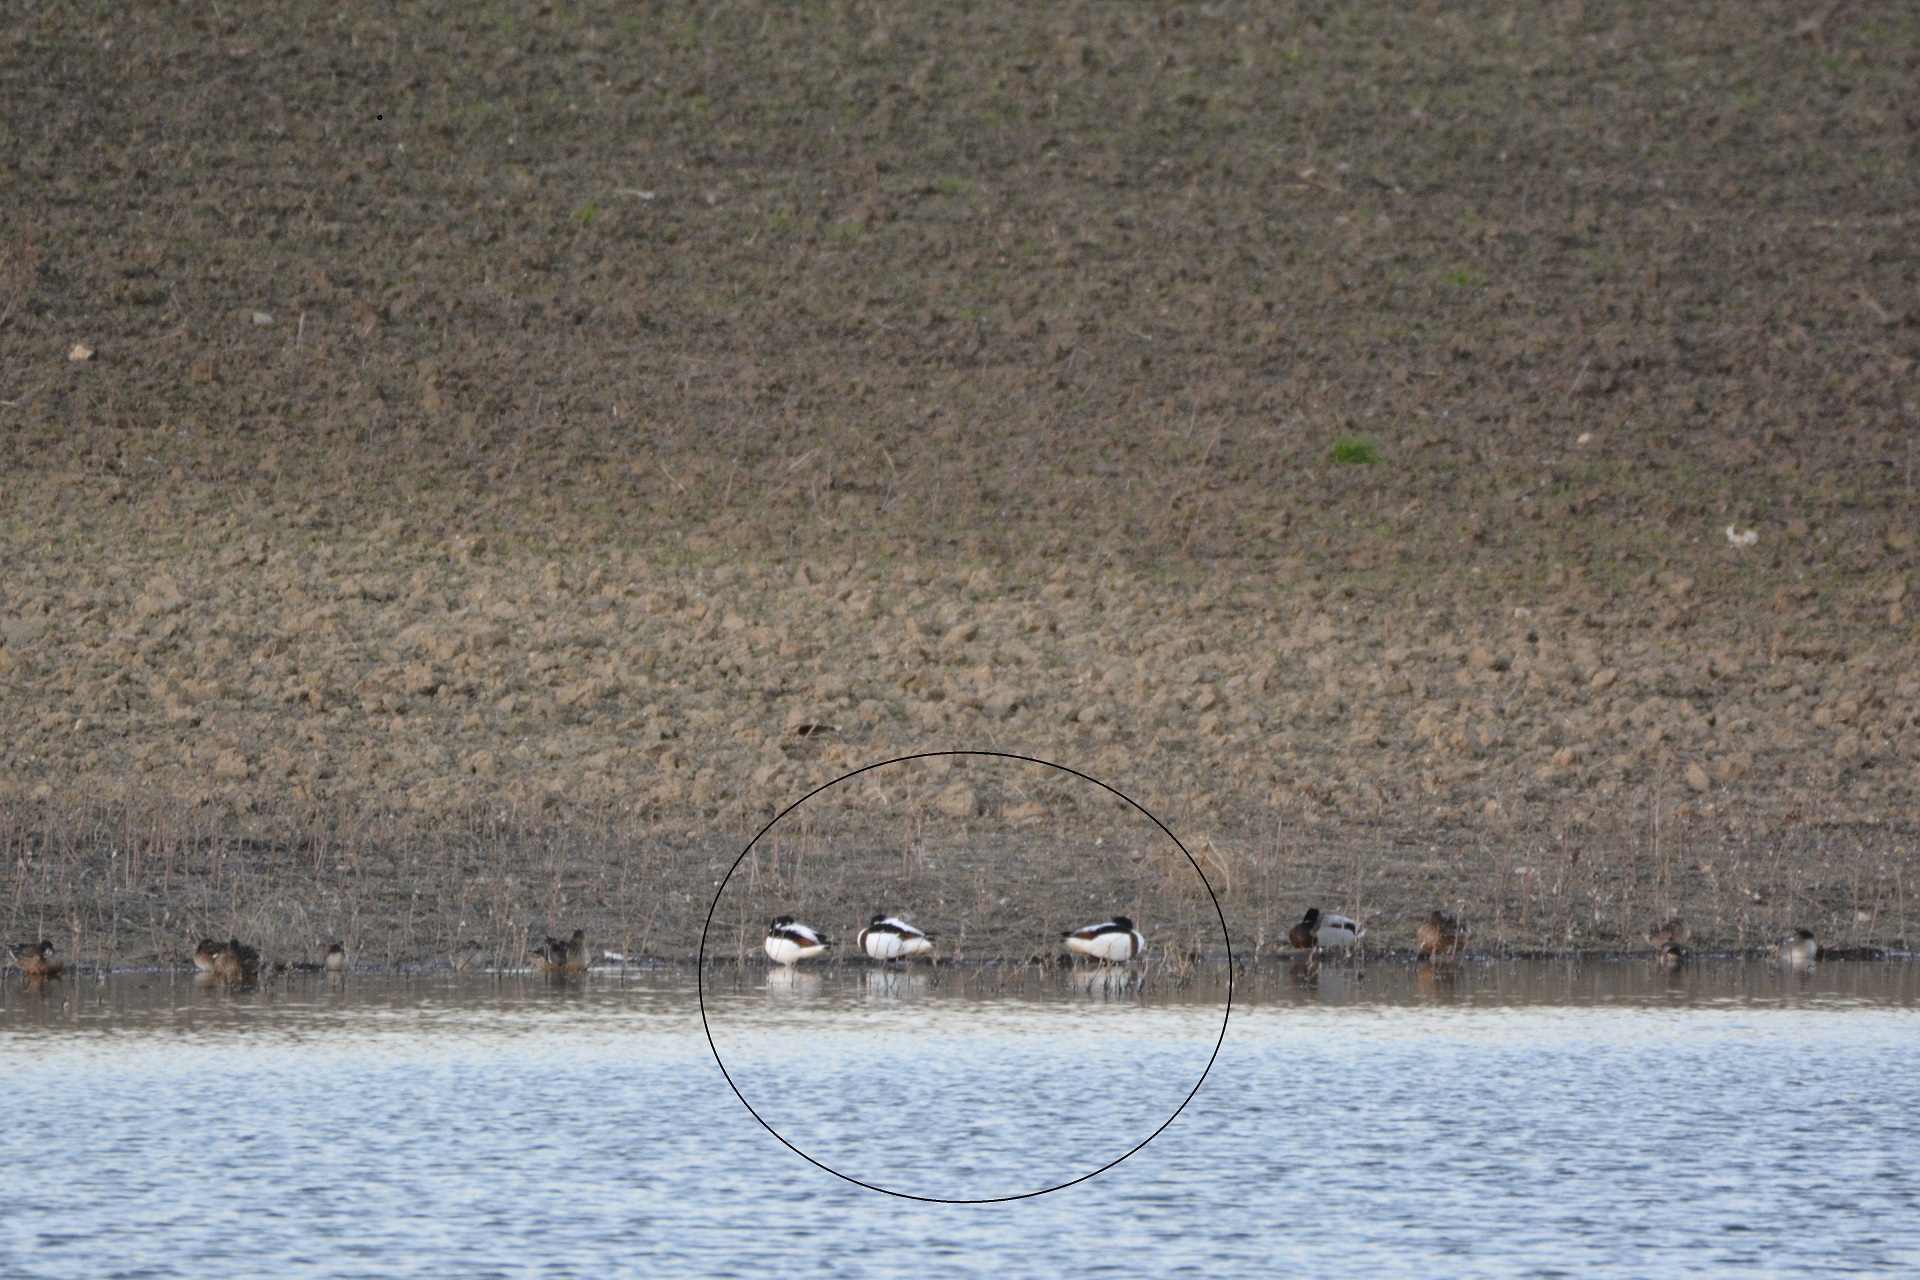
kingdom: Animalia
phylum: Chordata
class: Aves
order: Anseriformes
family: Anatidae
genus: Tadorna
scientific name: Tadorna tadorna
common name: Common shelduck
